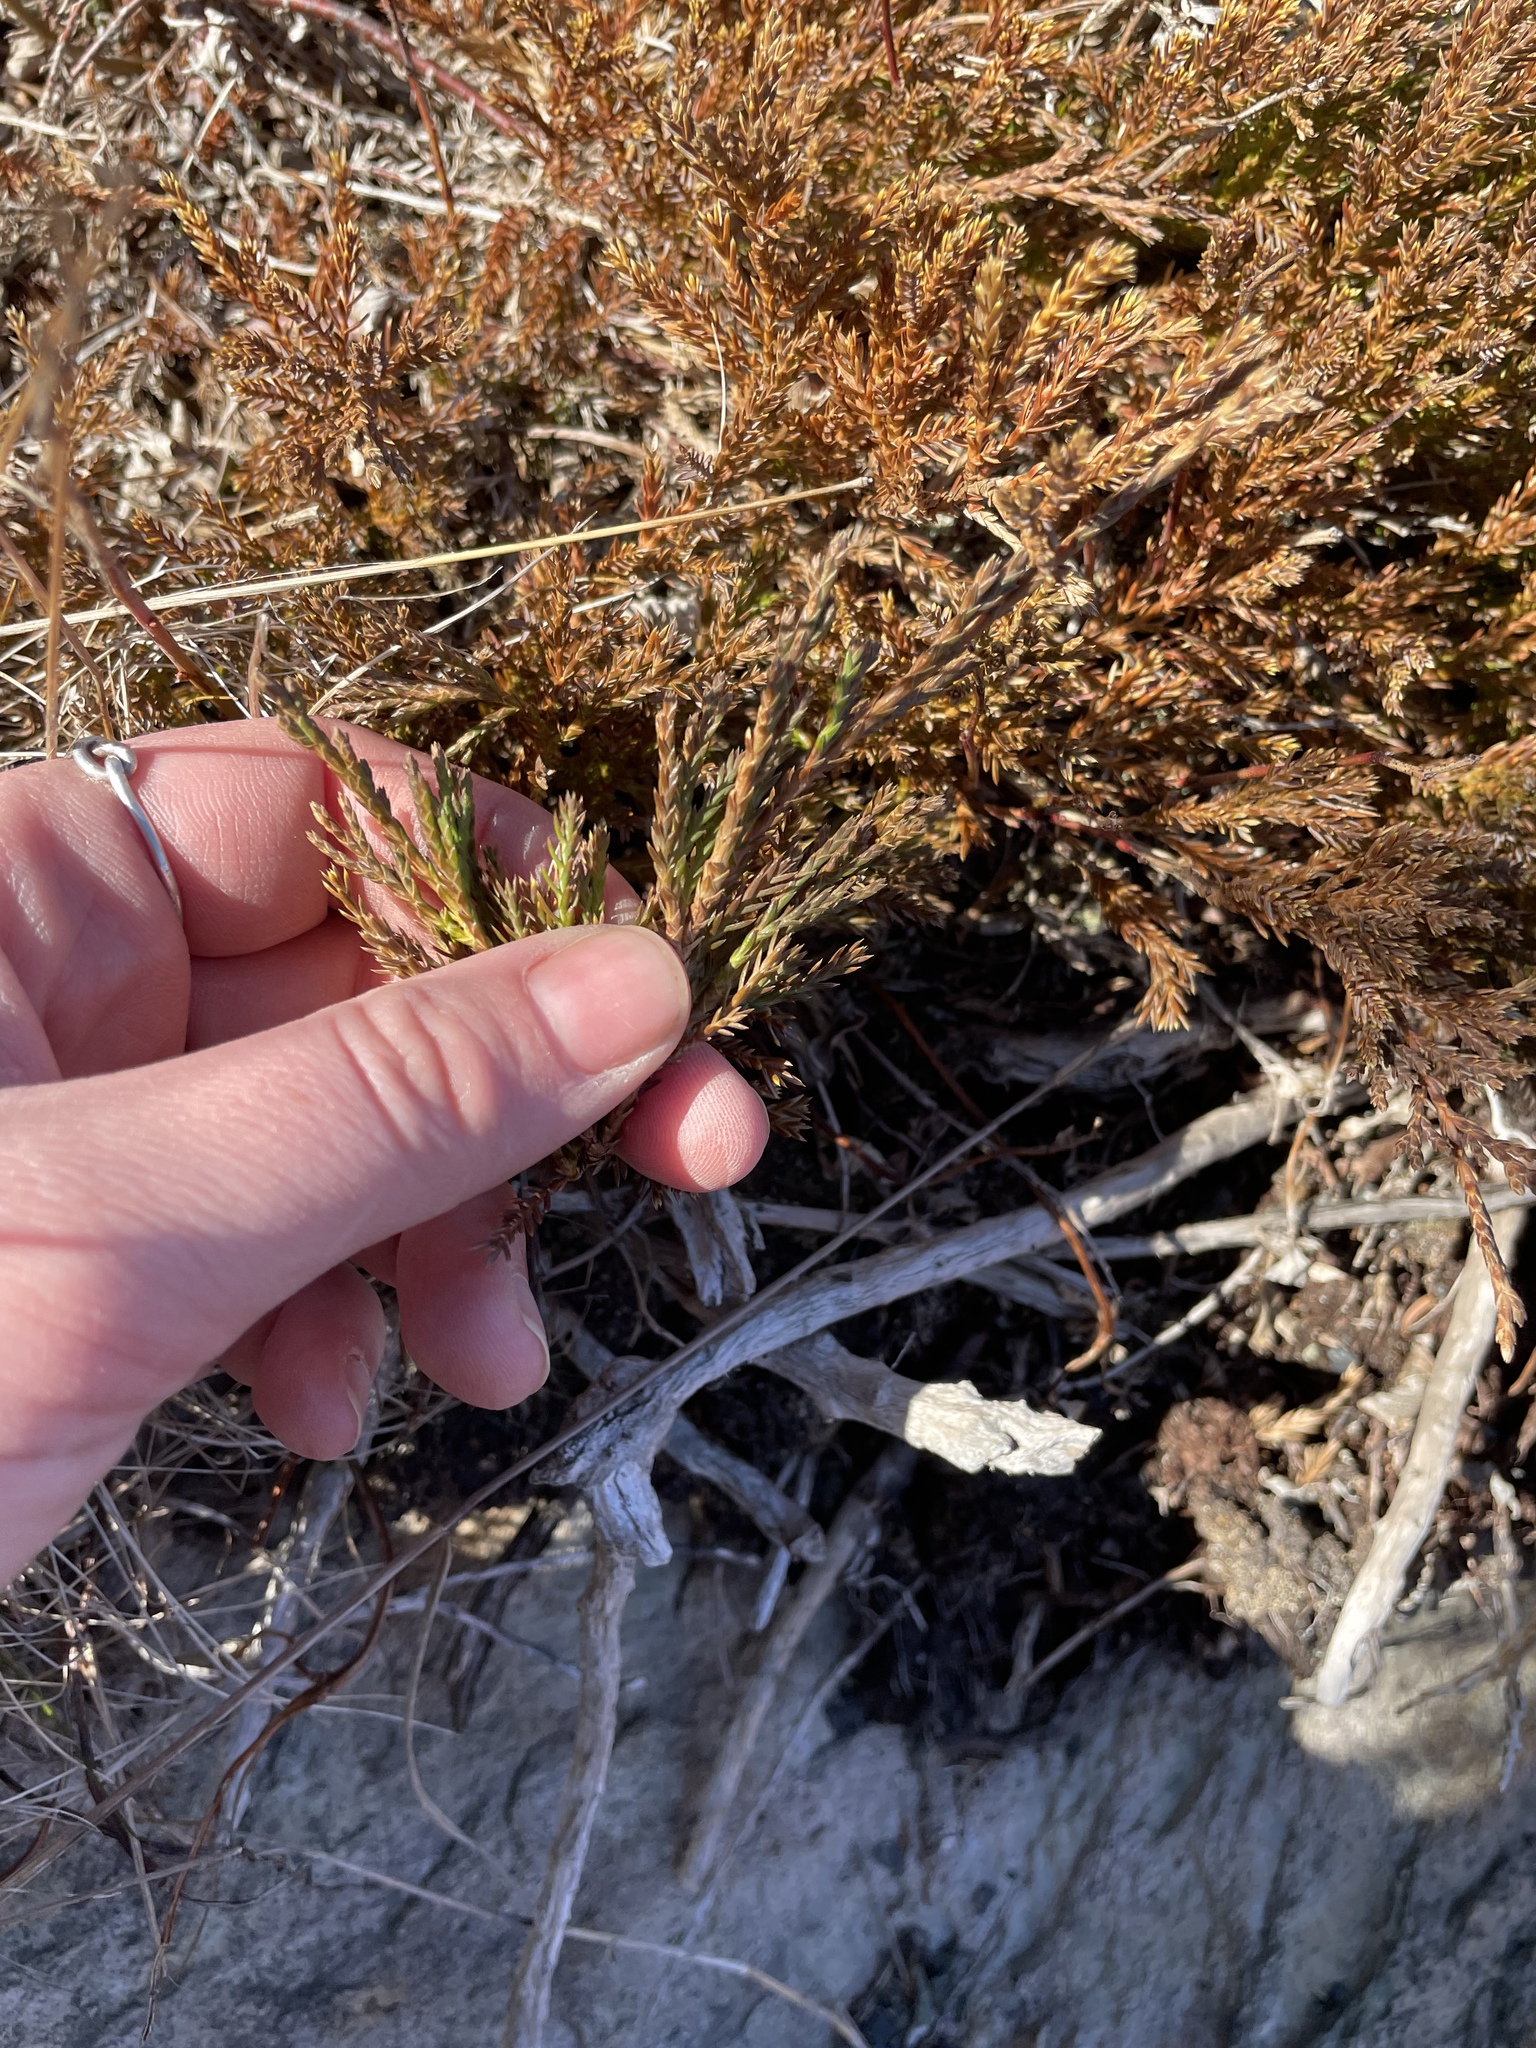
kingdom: Plantae
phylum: Tracheophyta
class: Pinopsida
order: Pinales
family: Cupressaceae
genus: Juniperus
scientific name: Juniperus horizontalis
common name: Creeping juniper
